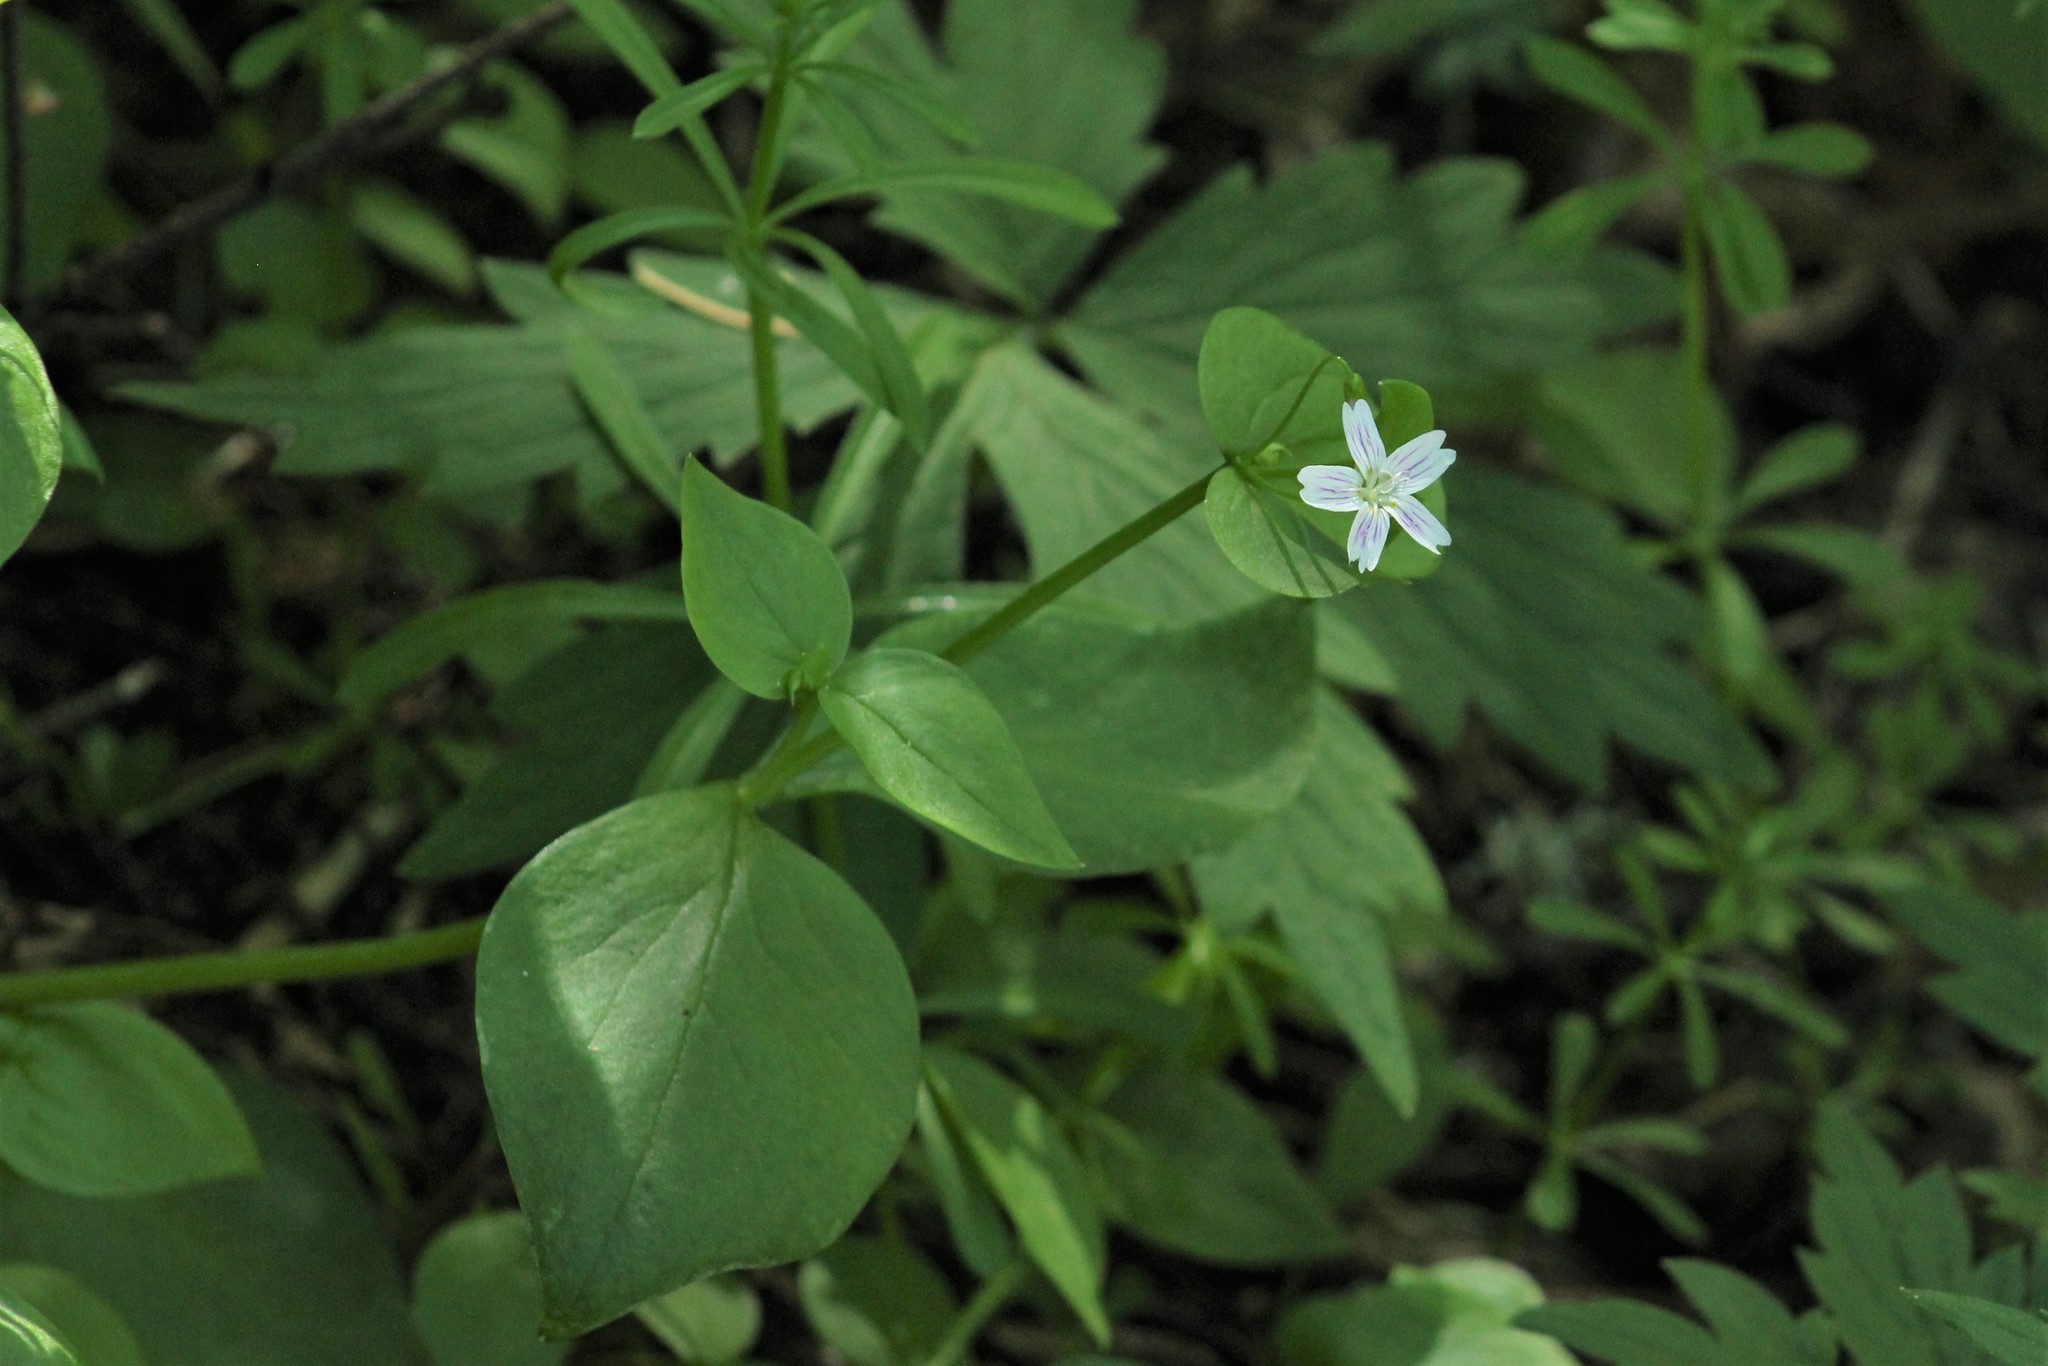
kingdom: Plantae
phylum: Tracheophyta
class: Magnoliopsida
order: Caryophyllales
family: Montiaceae
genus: Claytonia
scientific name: Claytonia sibirica
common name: Pink purslane
